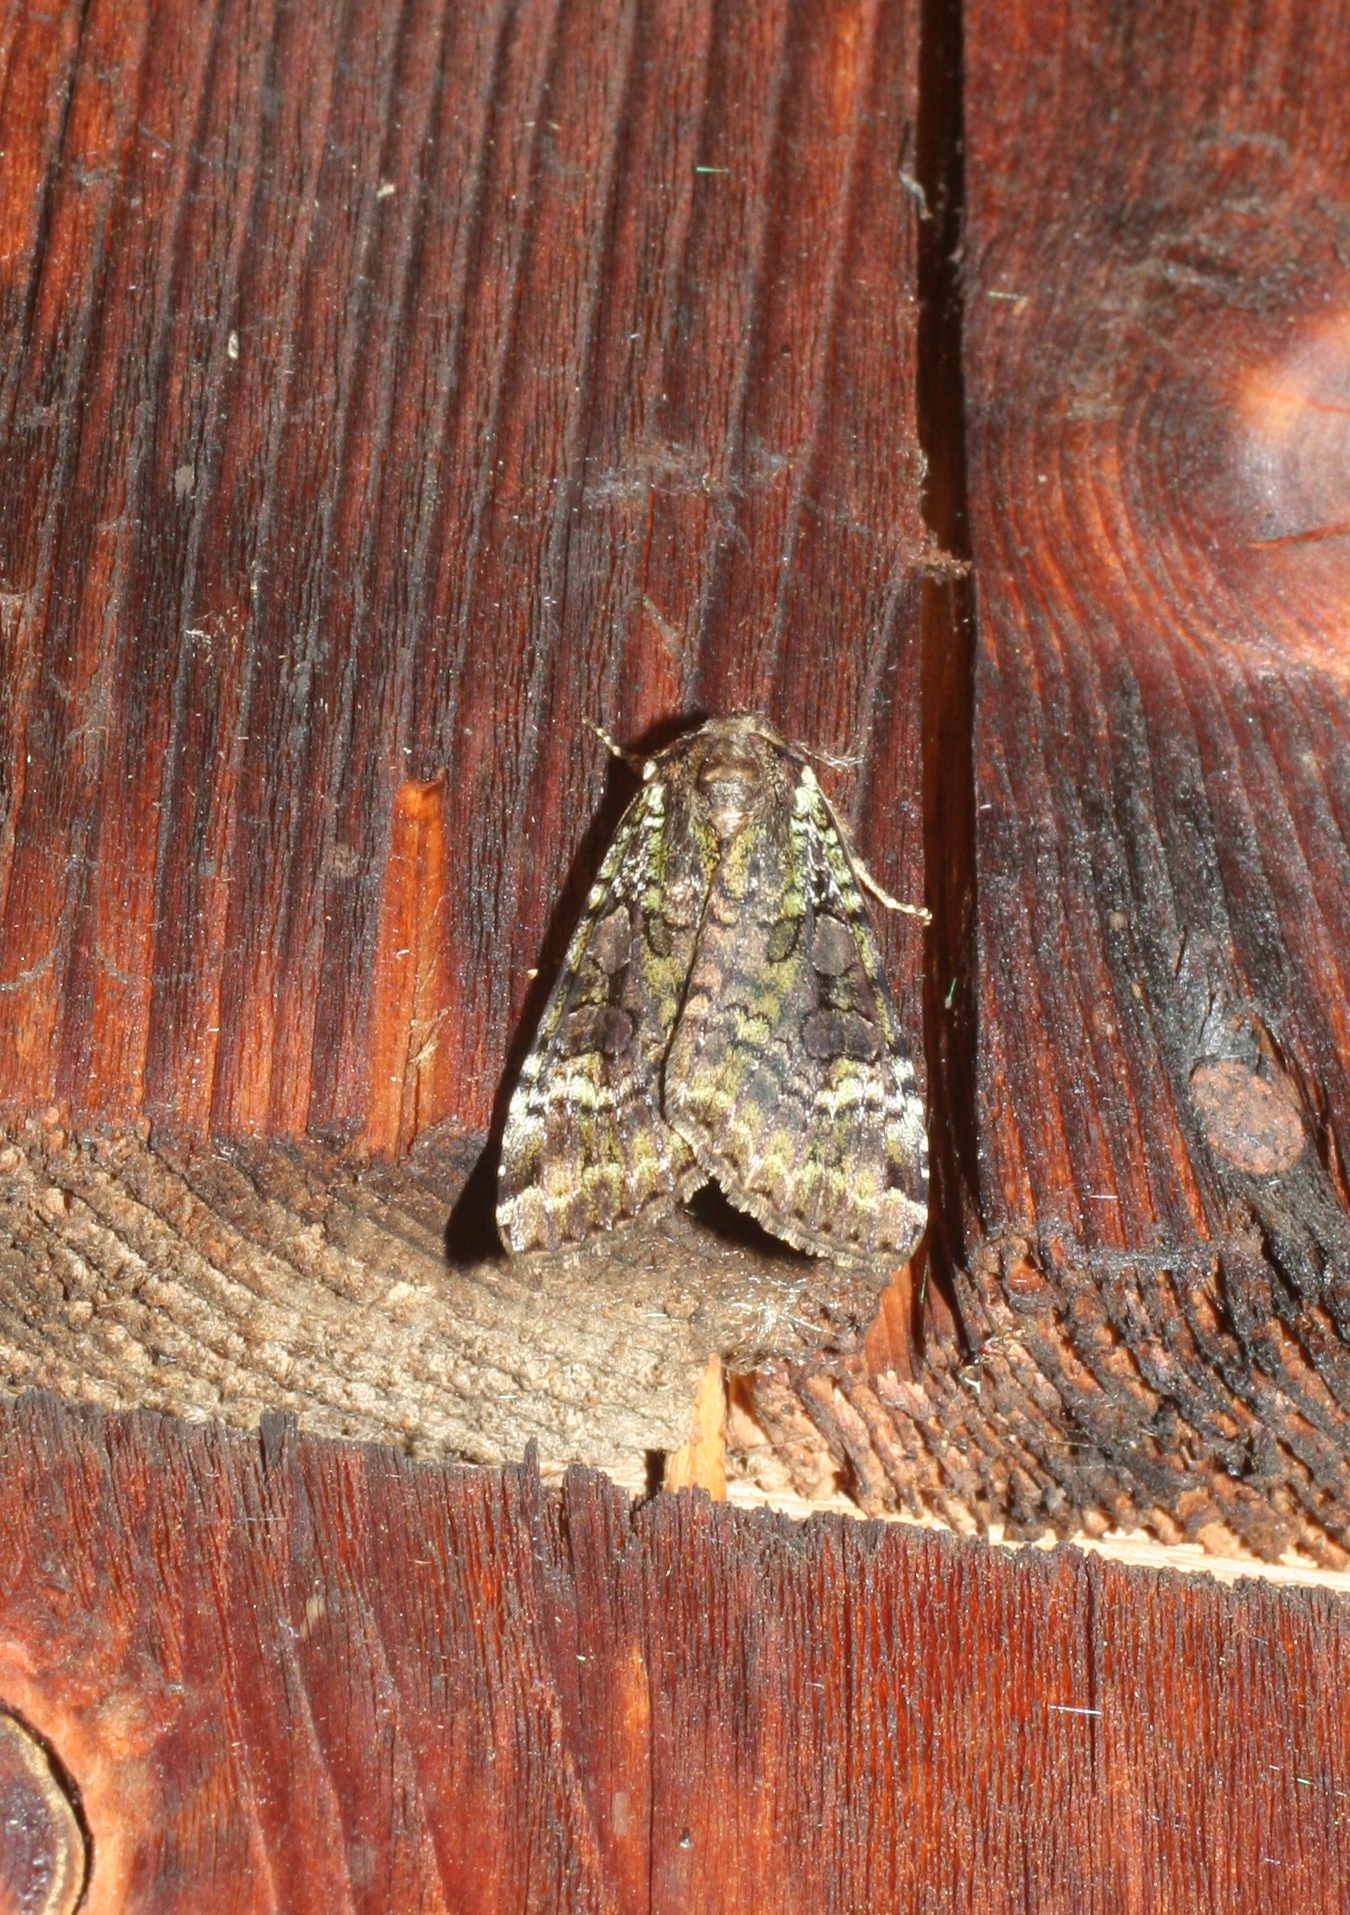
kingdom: Animalia
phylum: Arthropoda
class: Insecta
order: Lepidoptera
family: Noctuidae
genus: Anaplectoides
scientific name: Anaplectoides prasina
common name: Green arches
